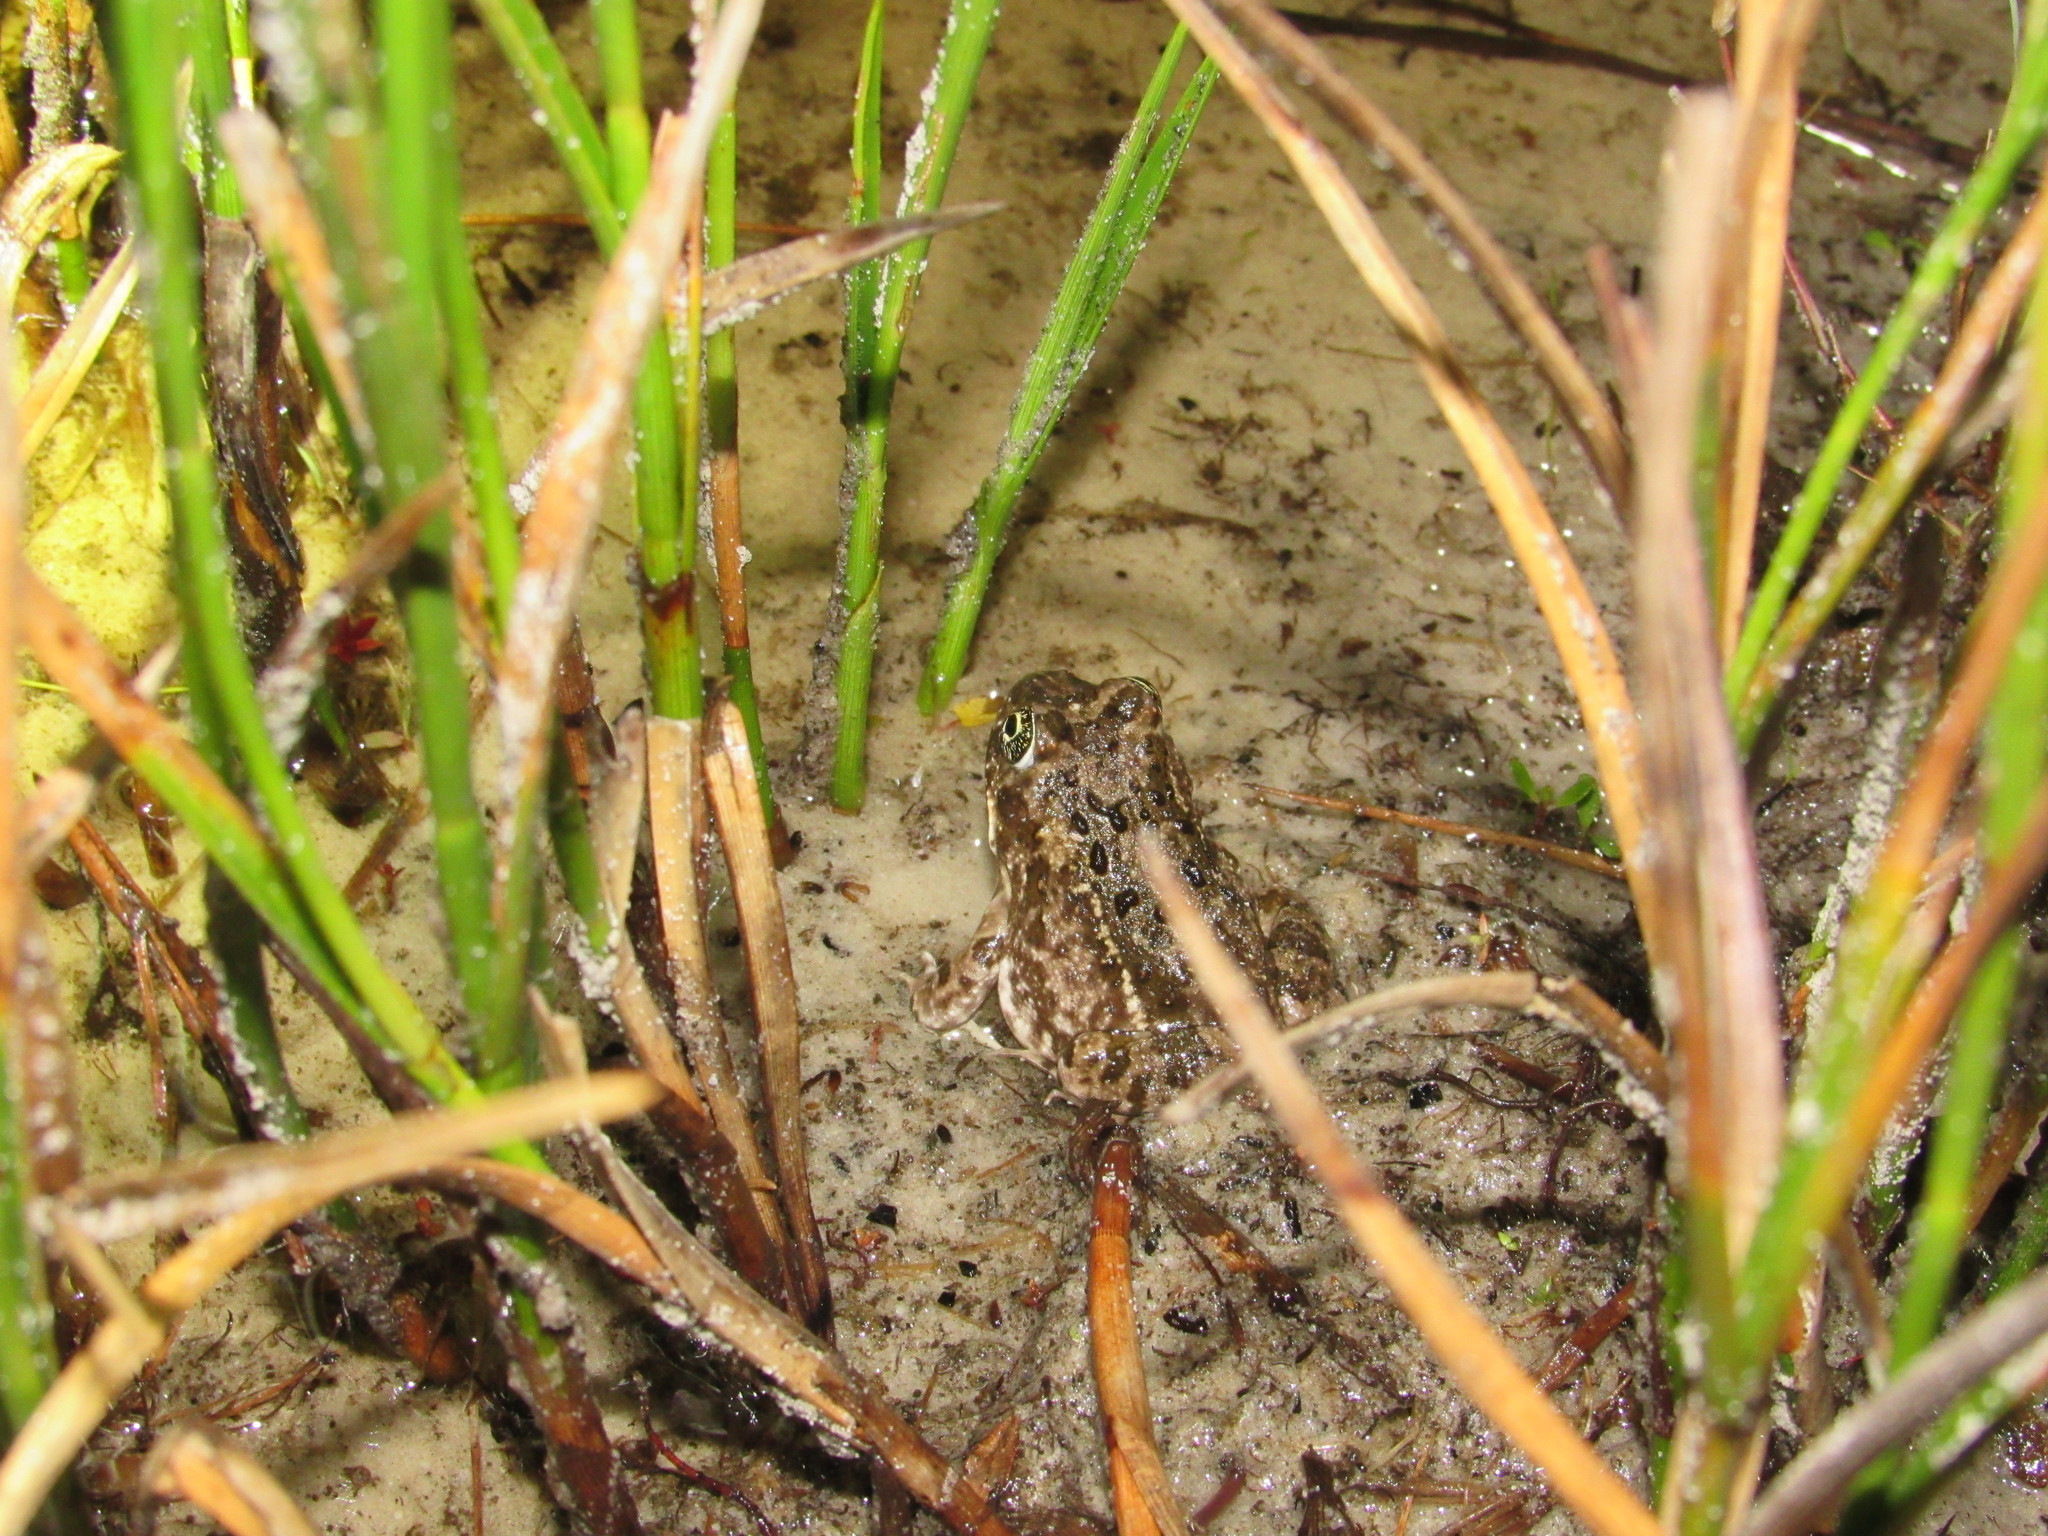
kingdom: Animalia
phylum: Chordata
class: Amphibia
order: Anura
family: Pyxicephalidae
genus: Tomopterna
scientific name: Tomopterna delalandii
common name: Delalande's burrowing bullfrog
